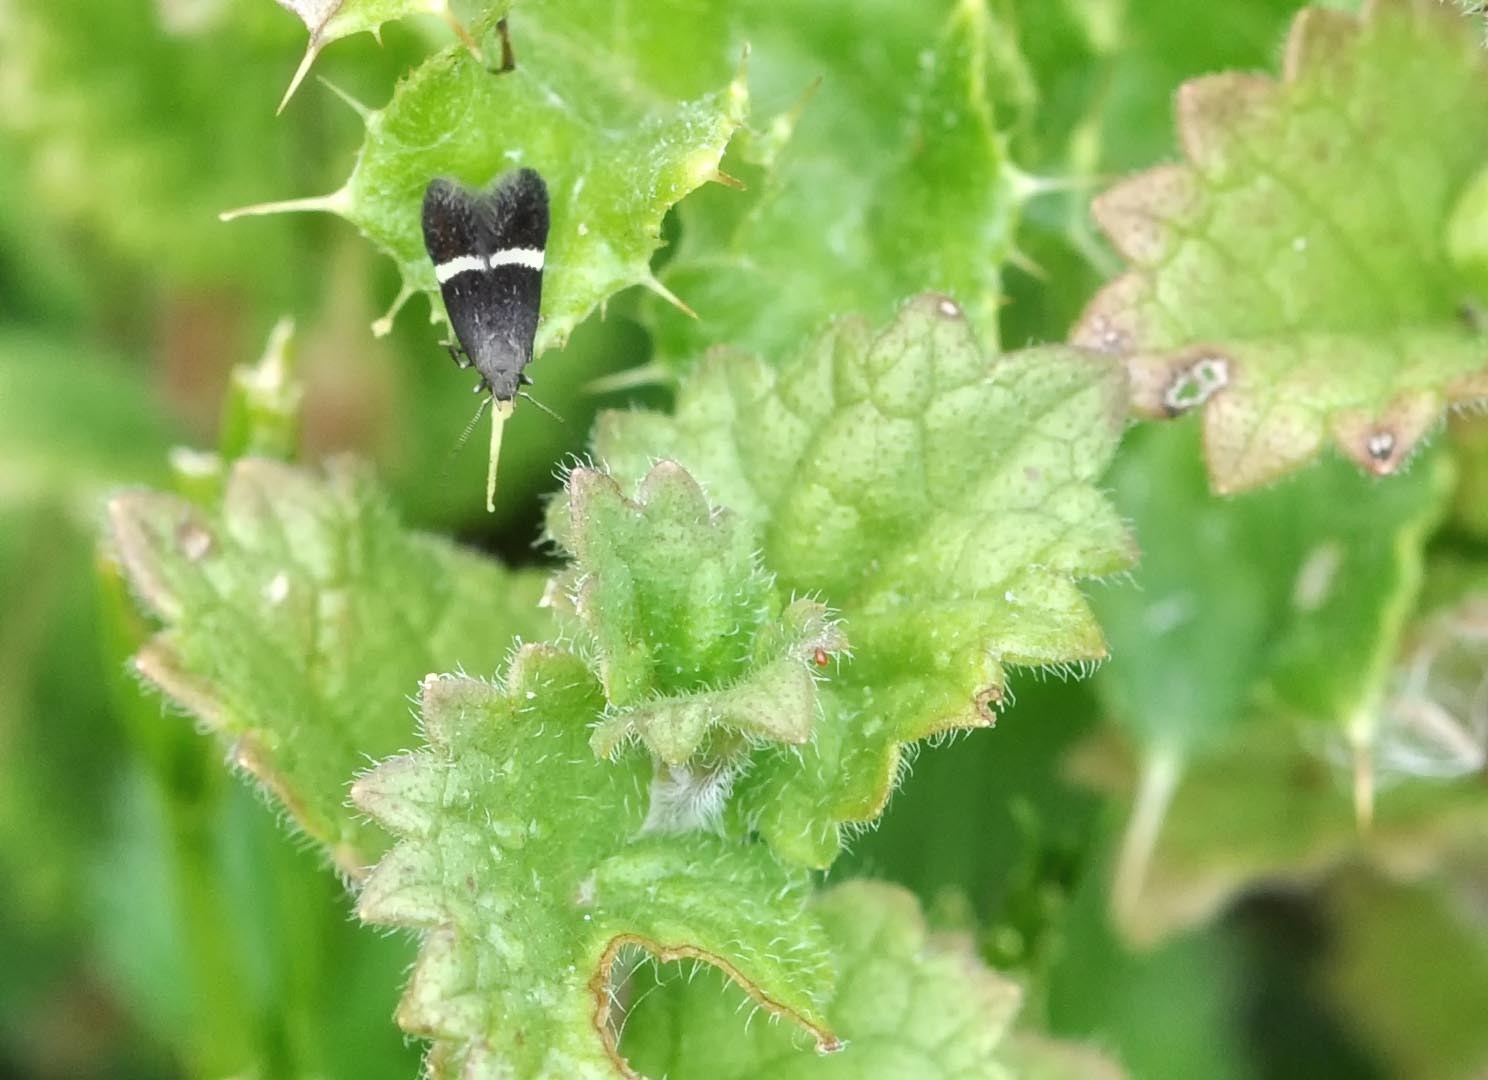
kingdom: Animalia
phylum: Arthropoda
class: Insecta
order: Lepidoptera
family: Gelechiidae
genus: Aproaerema
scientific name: Aproaerema
